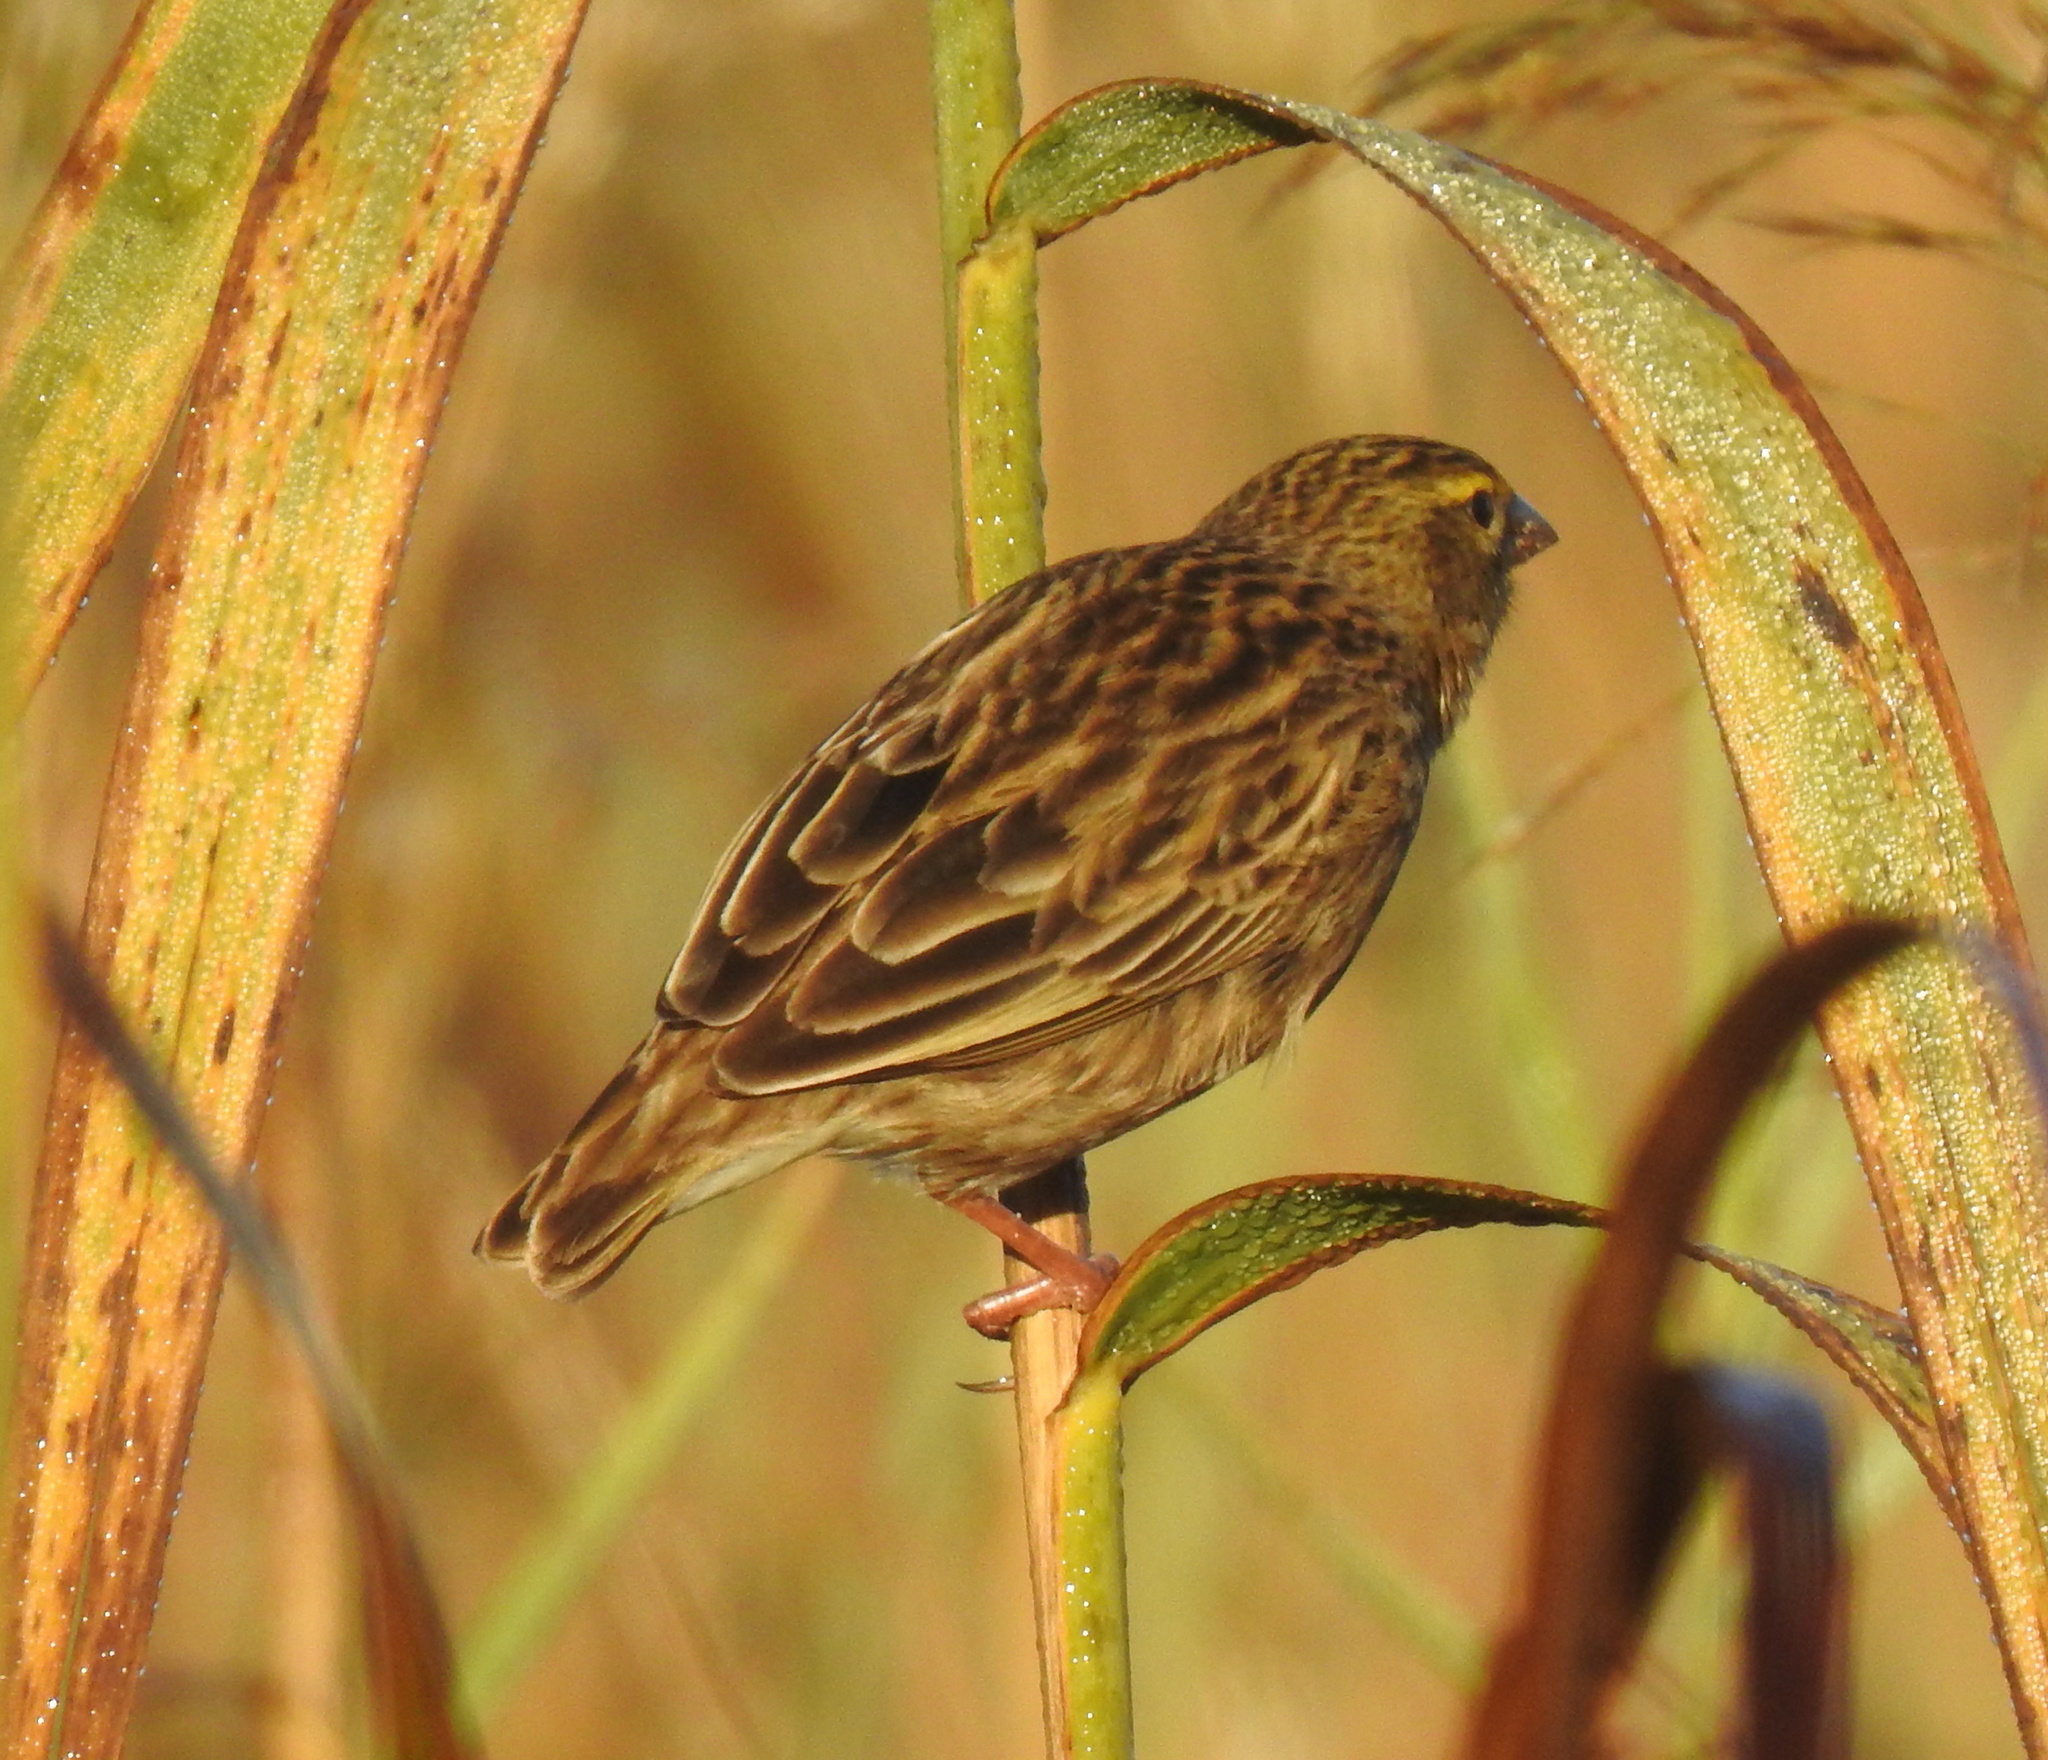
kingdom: Animalia
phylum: Chordata
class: Aves
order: Passeriformes
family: Ploceidae
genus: Euplectes
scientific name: Euplectes orix
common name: Southern red bishop
